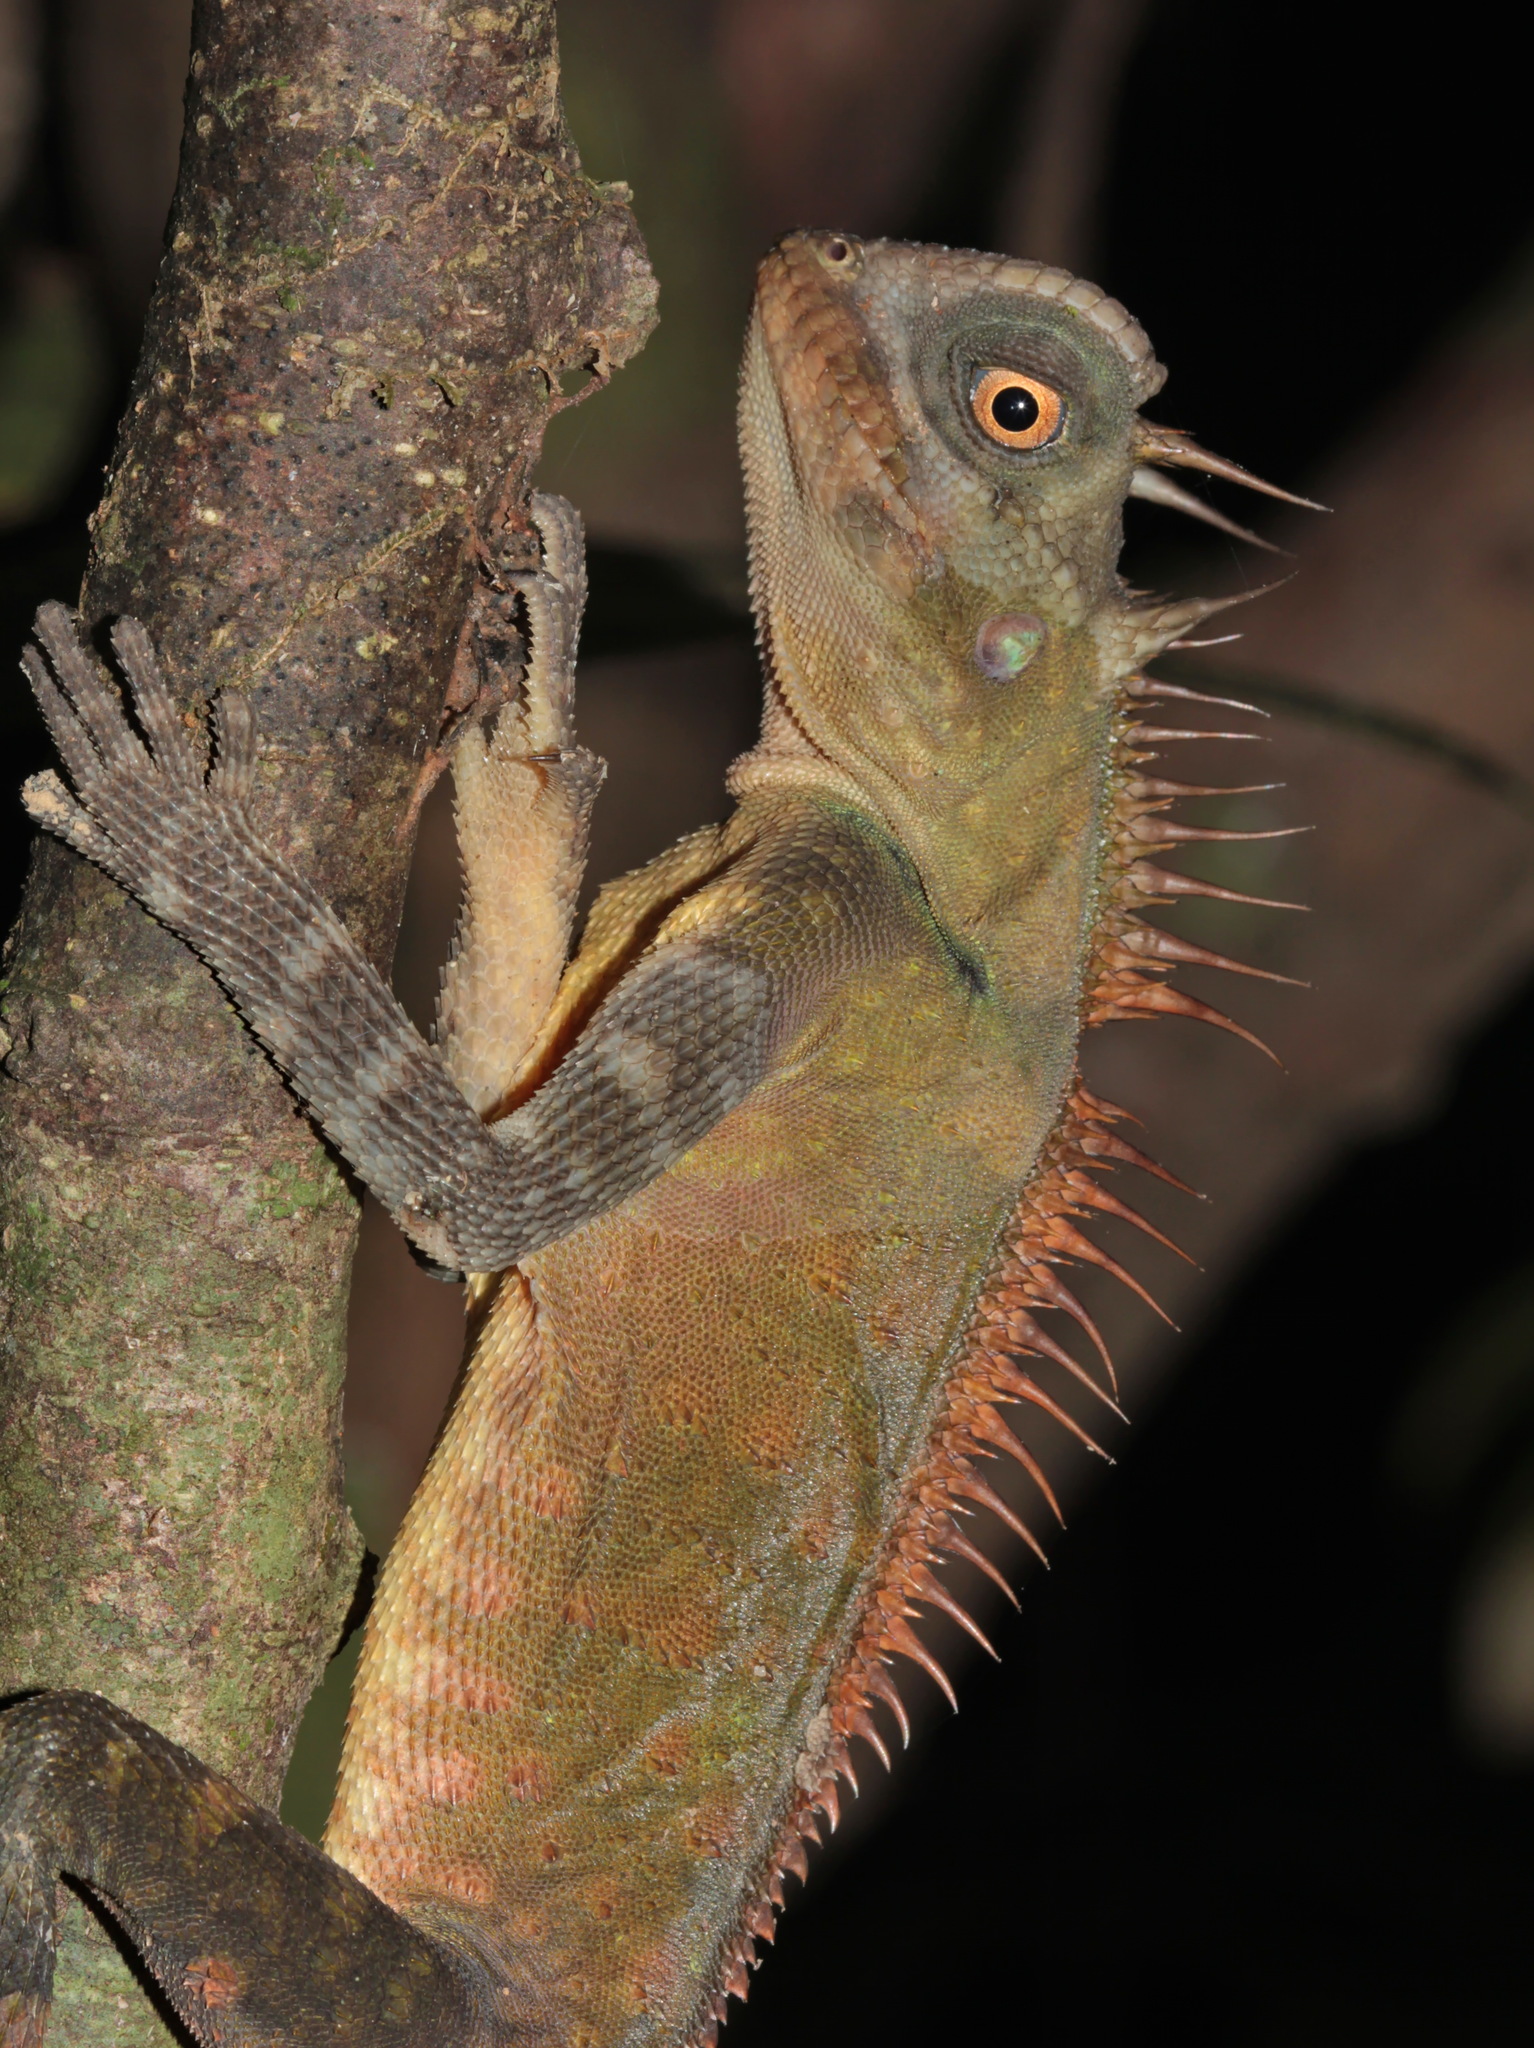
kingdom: Animalia
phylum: Chordata
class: Squamata
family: Agamidae
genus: Acanthosaura
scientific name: Acanthosaura armata
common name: Armored pricklenape
